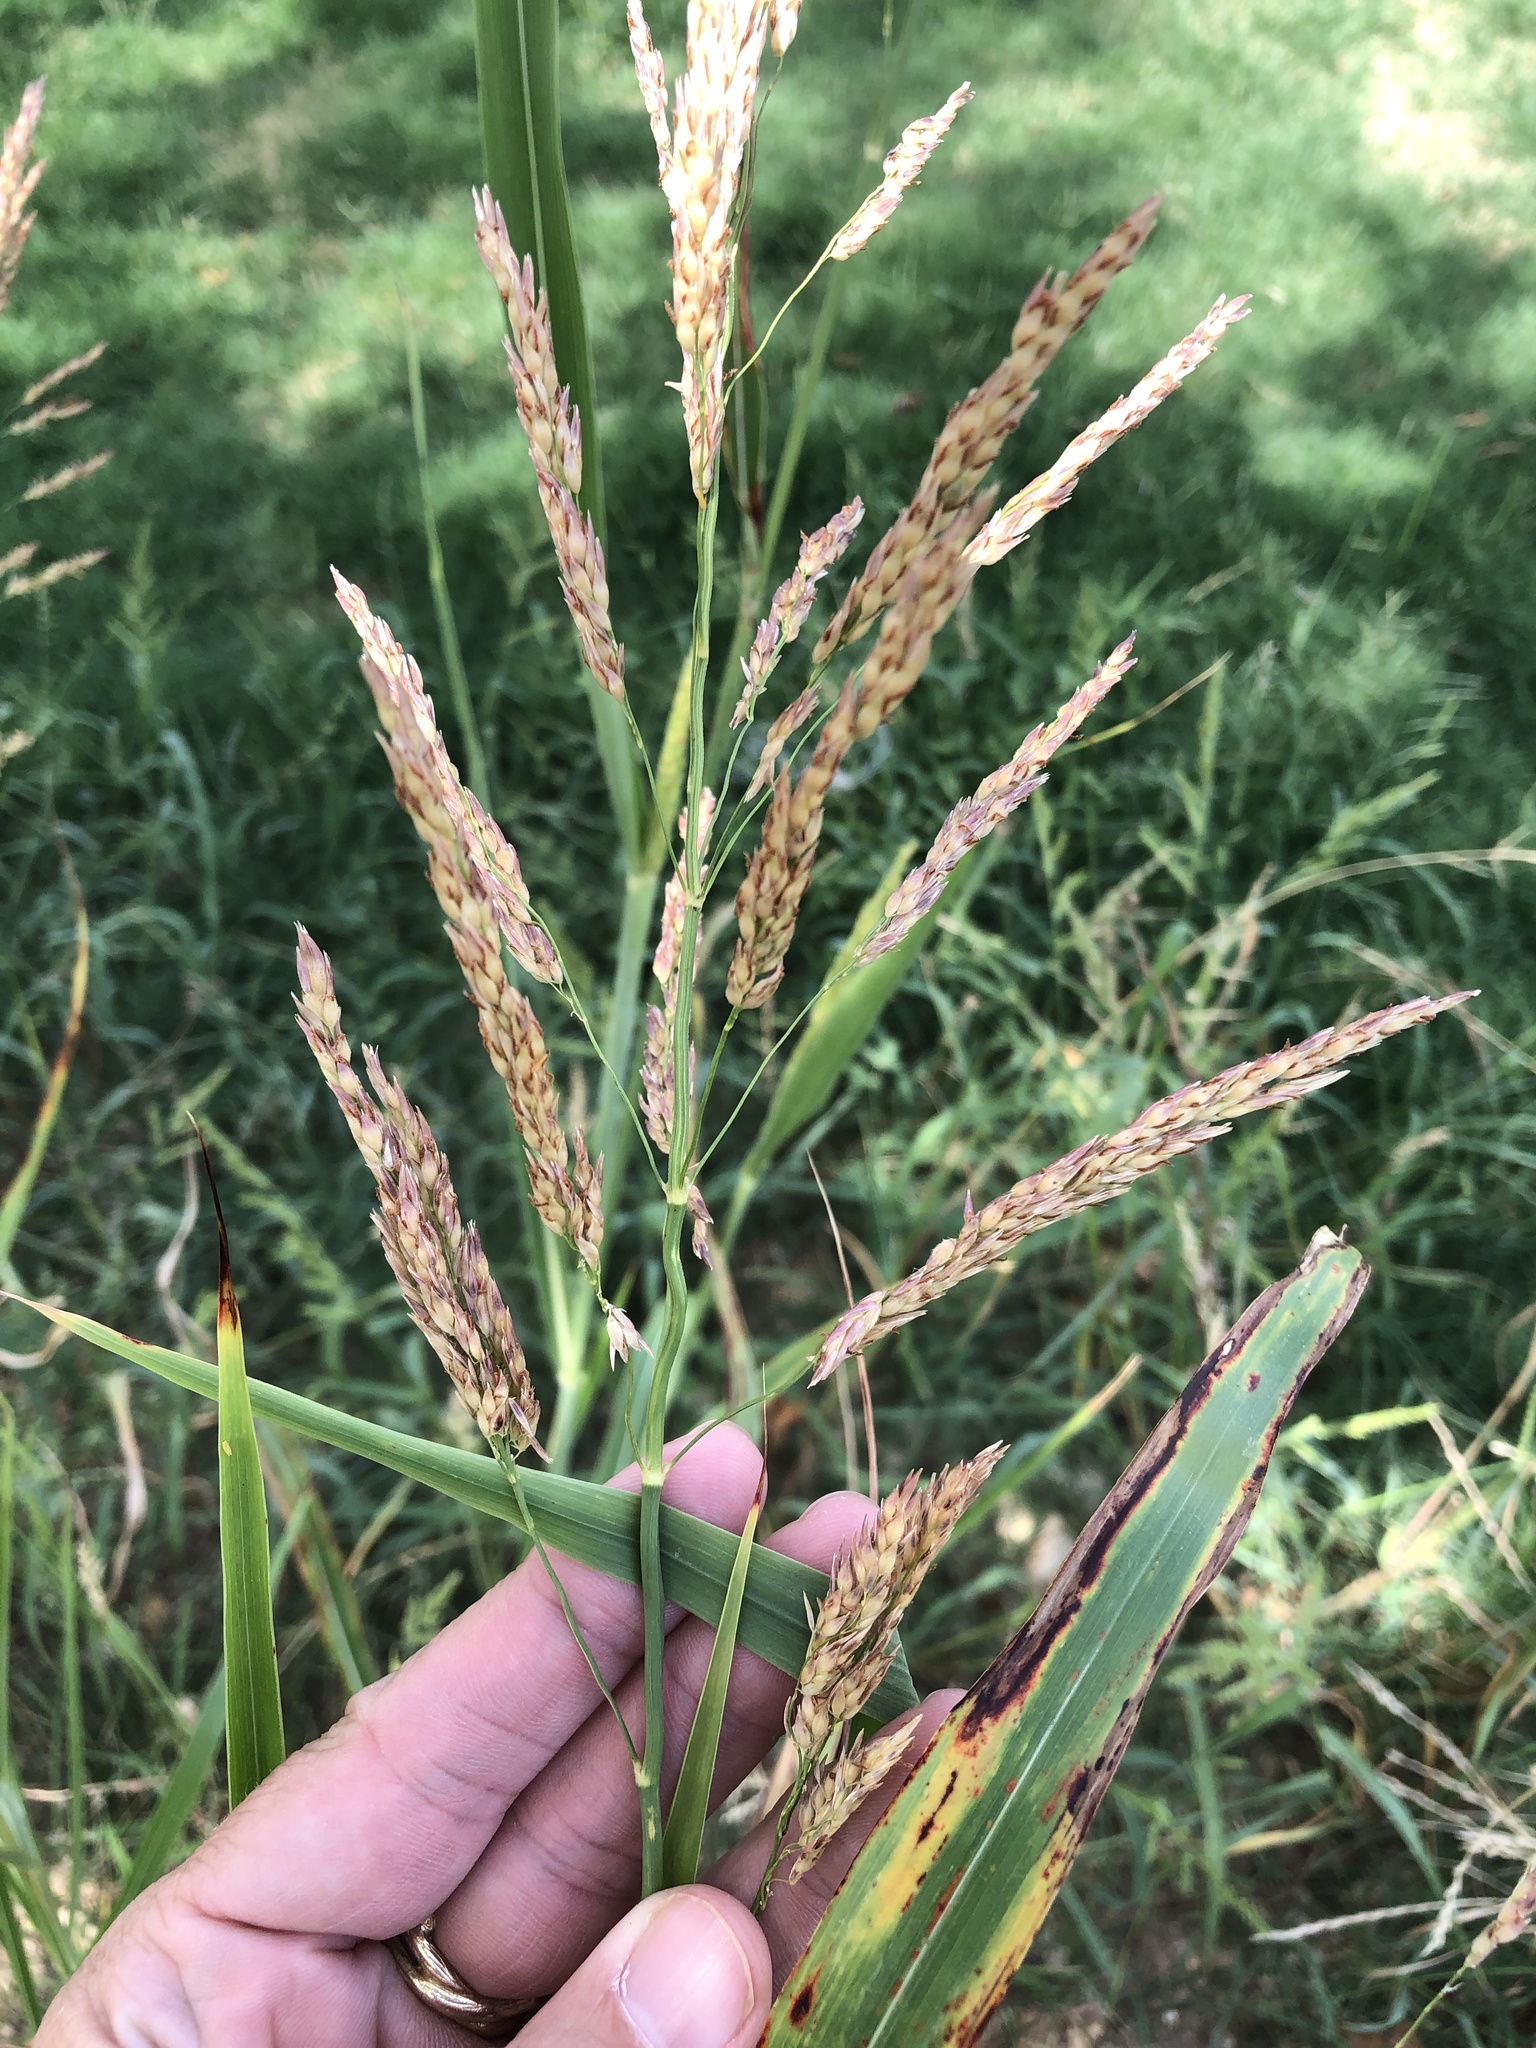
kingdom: Plantae
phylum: Tracheophyta
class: Liliopsida
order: Poales
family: Poaceae
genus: Sorghum
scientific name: Sorghum halepense
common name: Johnson-grass
